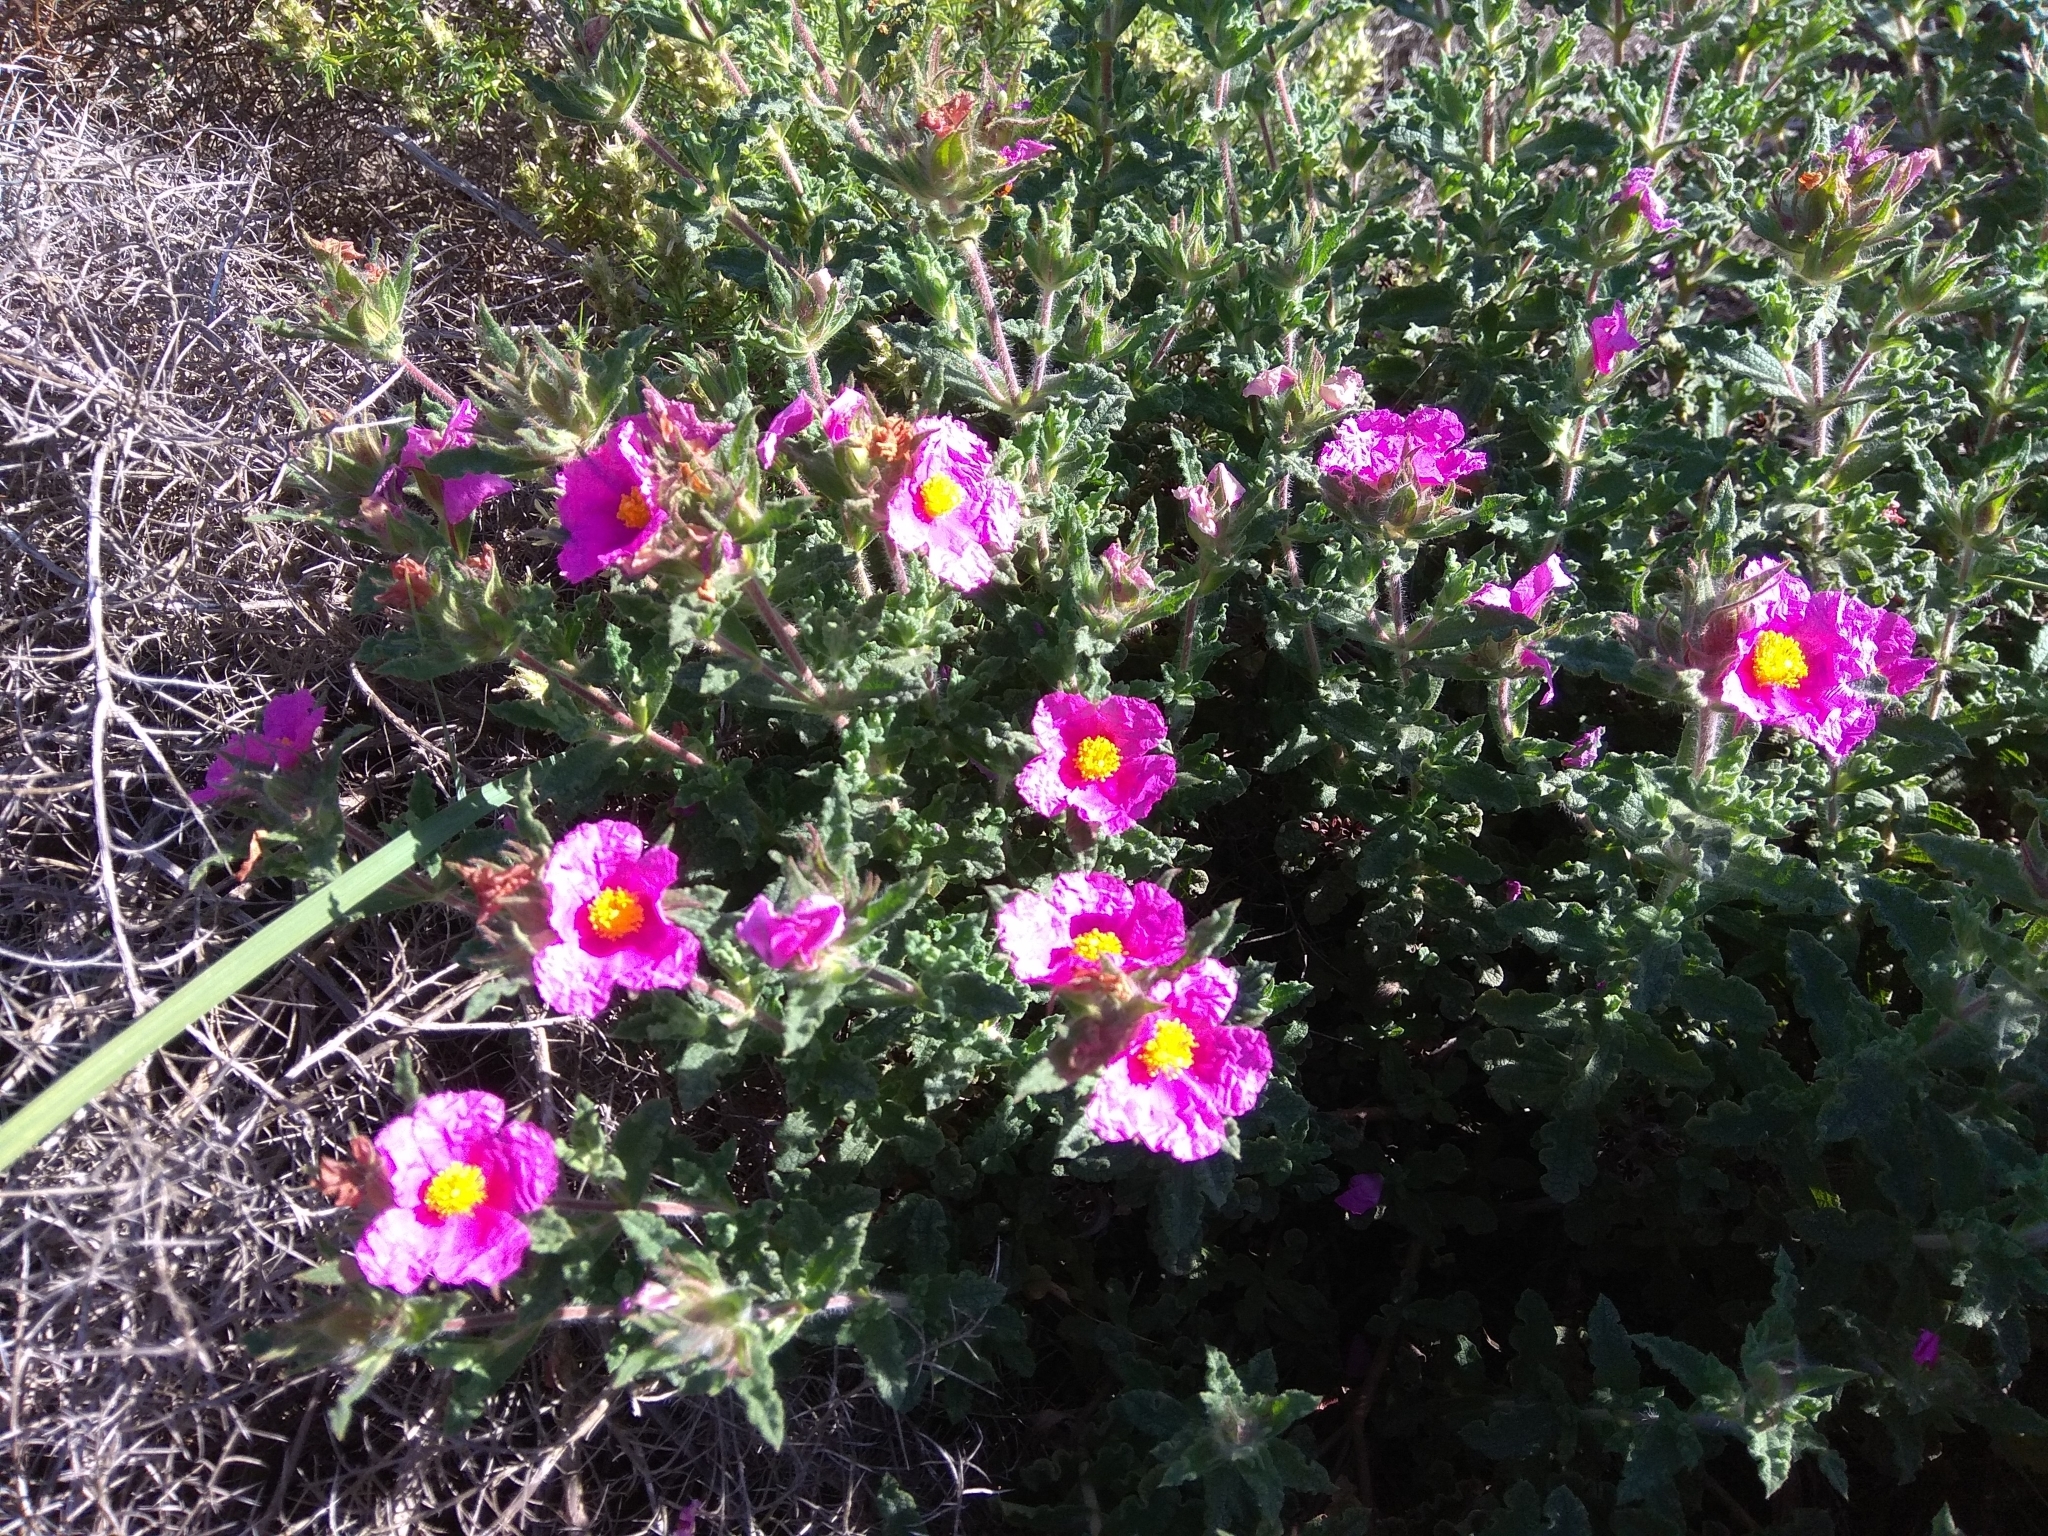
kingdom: Plantae
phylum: Tracheophyta
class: Magnoliopsida
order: Malvales
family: Cistaceae
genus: Cistus
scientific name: Cistus crispus
